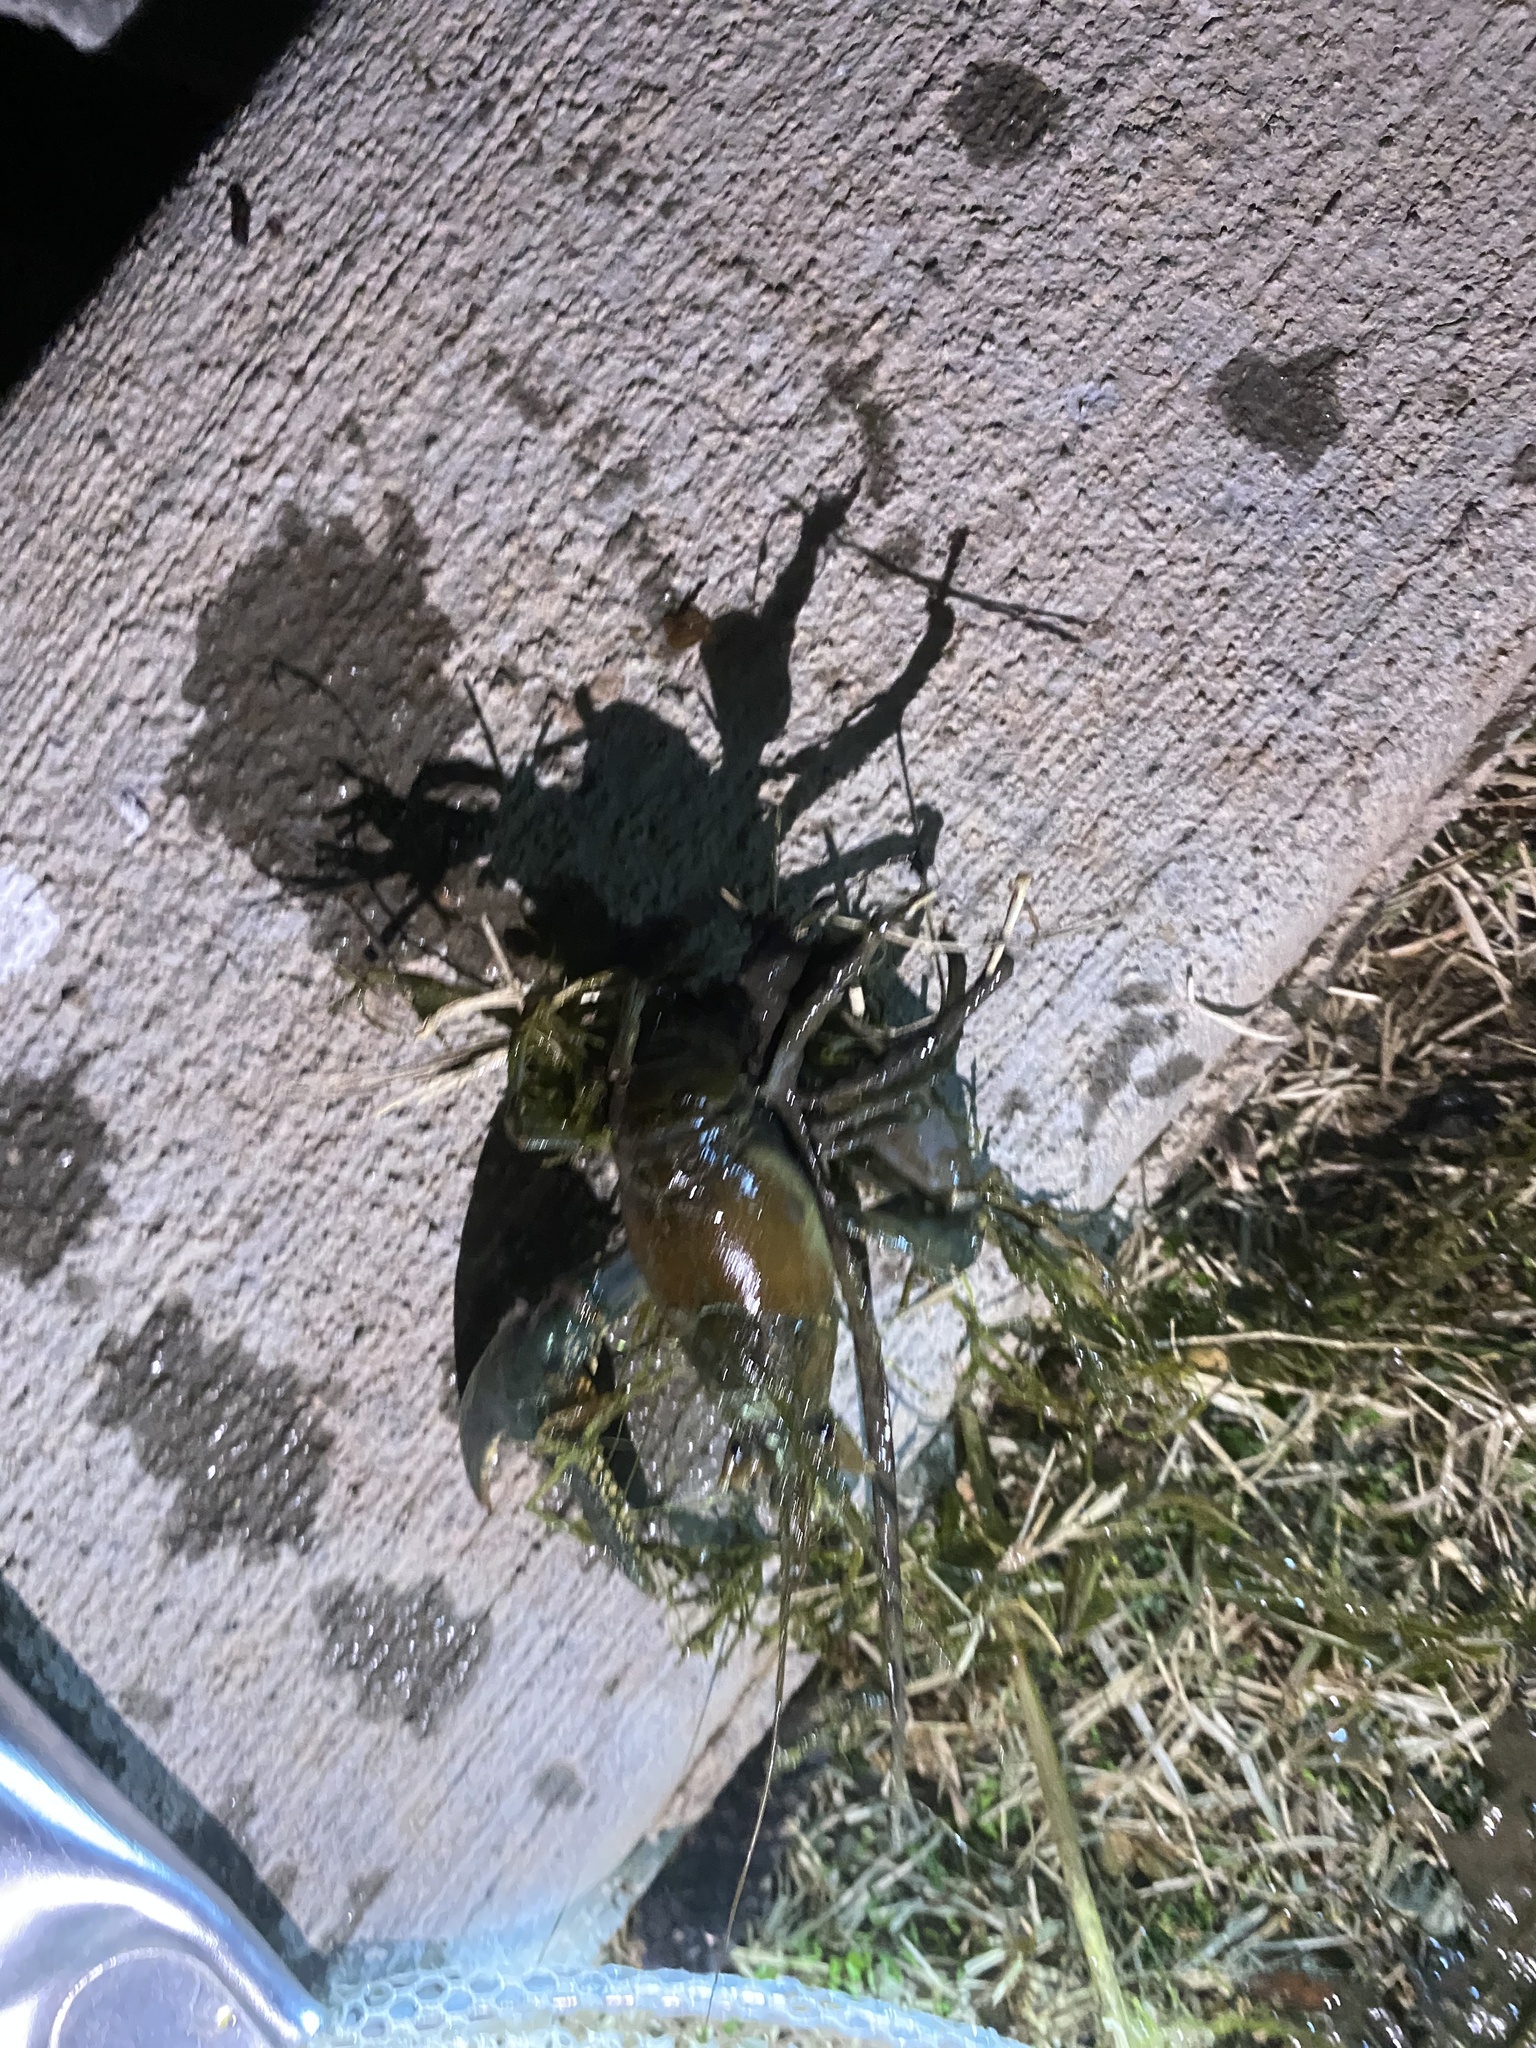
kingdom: Animalia
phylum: Arthropoda
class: Malacostraca
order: Decapoda
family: Cambaridae
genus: Faxonius
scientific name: Faxonius virilis
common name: Virile crayfish
